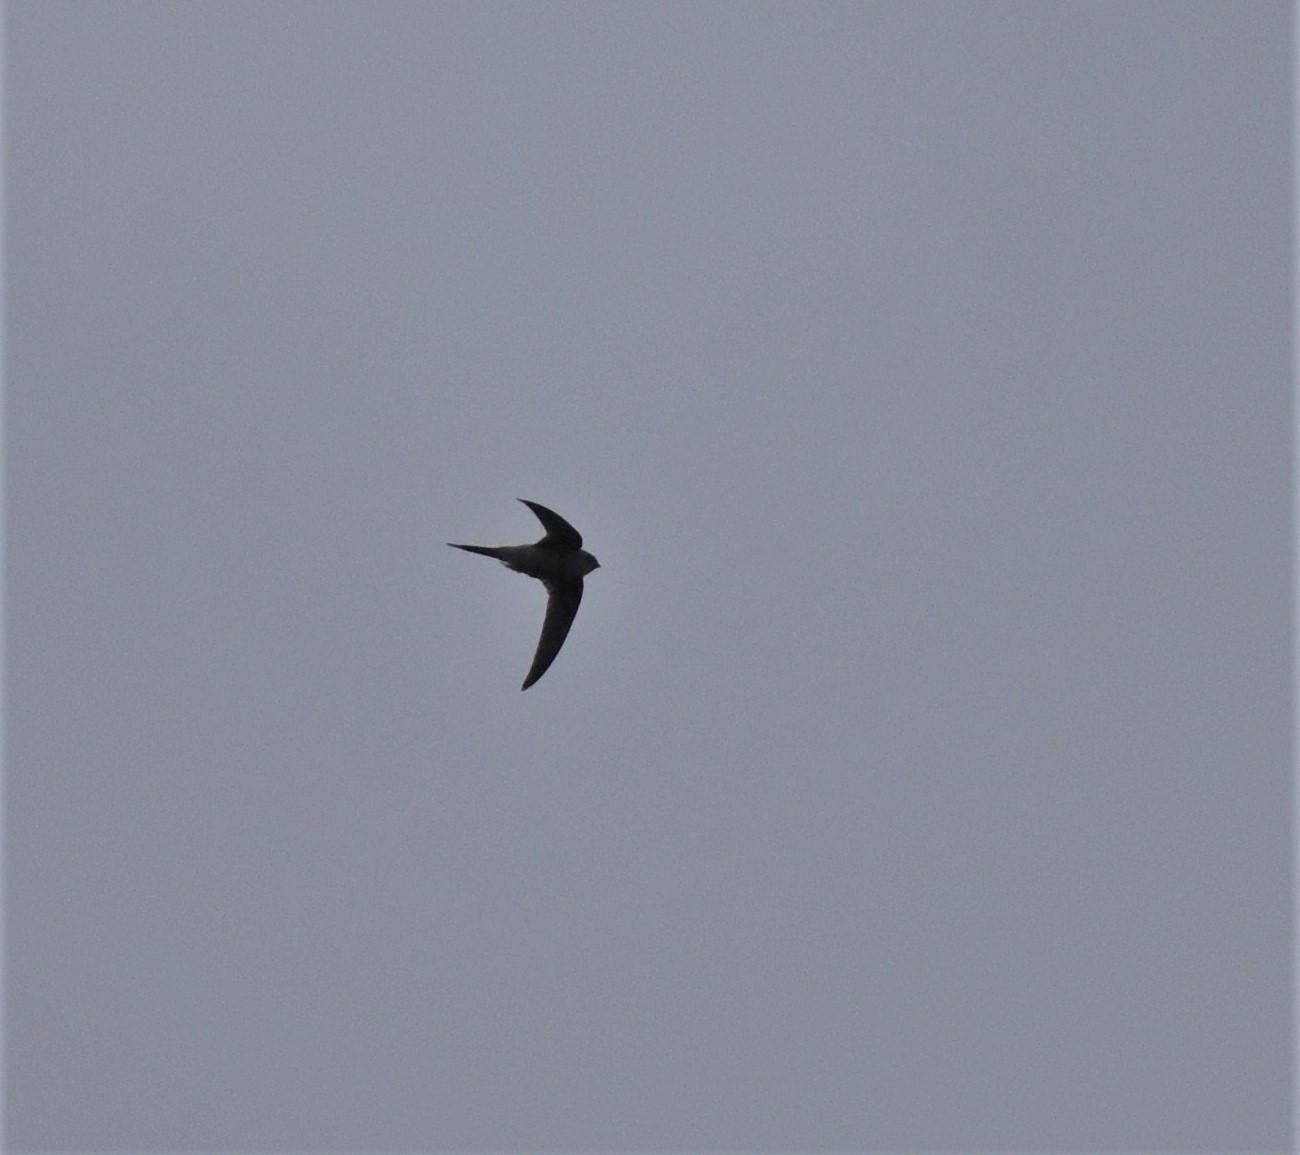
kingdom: Animalia
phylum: Chordata
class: Aves
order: Apodiformes
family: Apodidae
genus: Cypsiurus
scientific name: Cypsiurus parvus
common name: African palm swift
